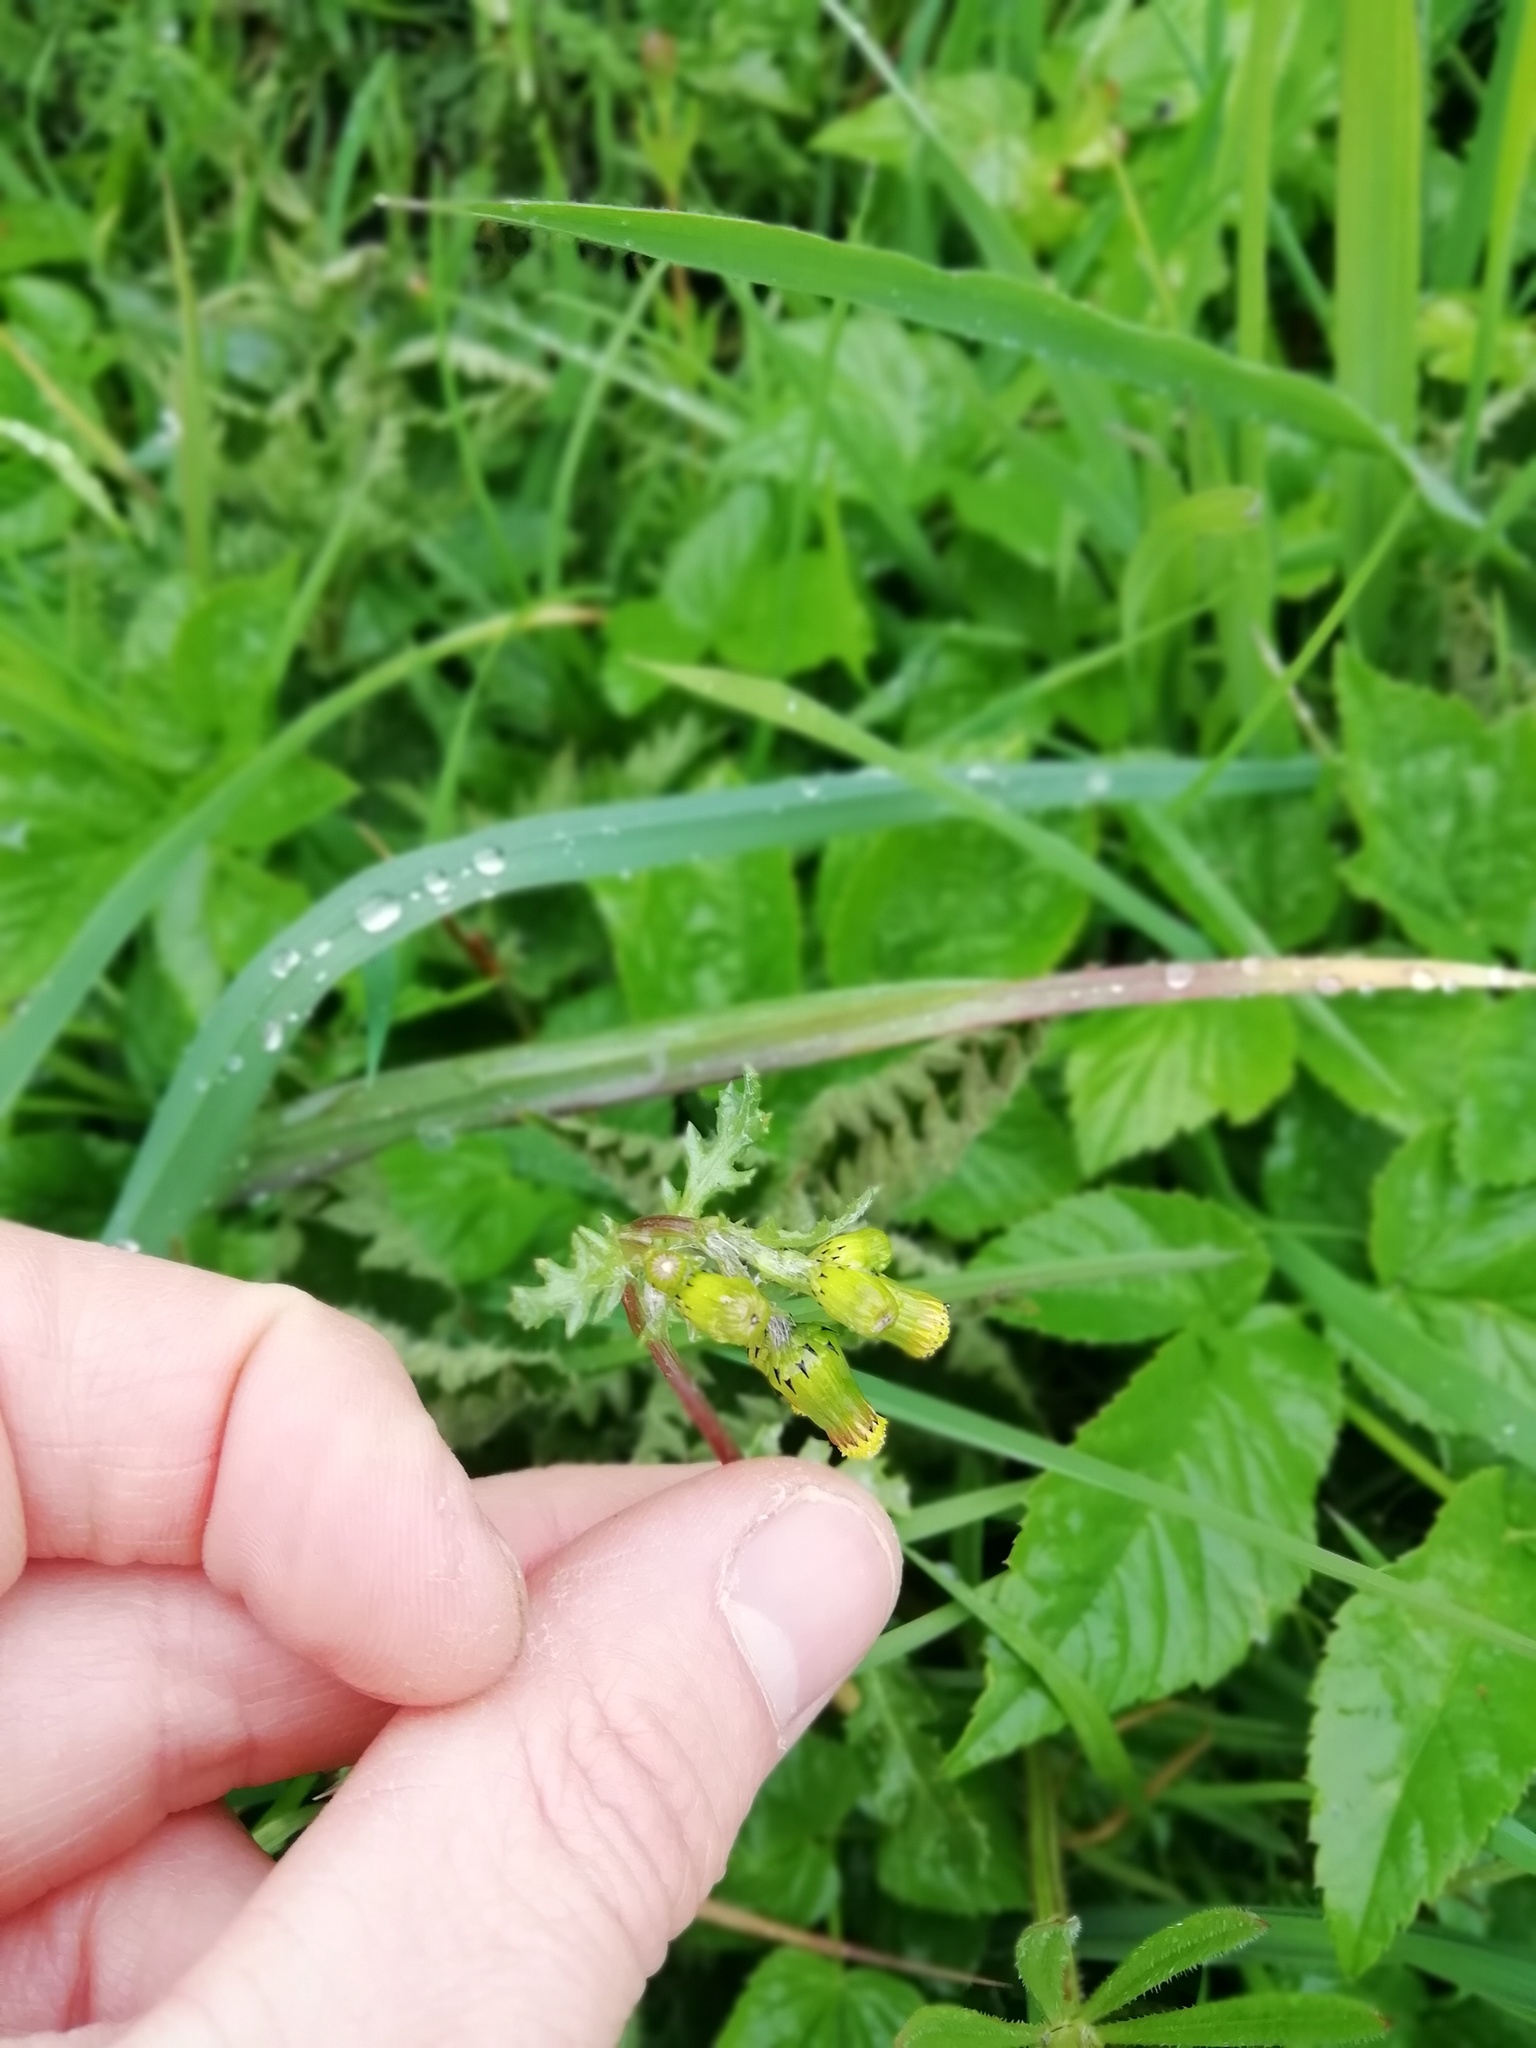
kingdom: Plantae
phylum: Tracheophyta
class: Magnoliopsida
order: Asterales
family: Asteraceae
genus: Senecio
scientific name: Senecio vulgaris
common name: Old-man-in-the-spring
